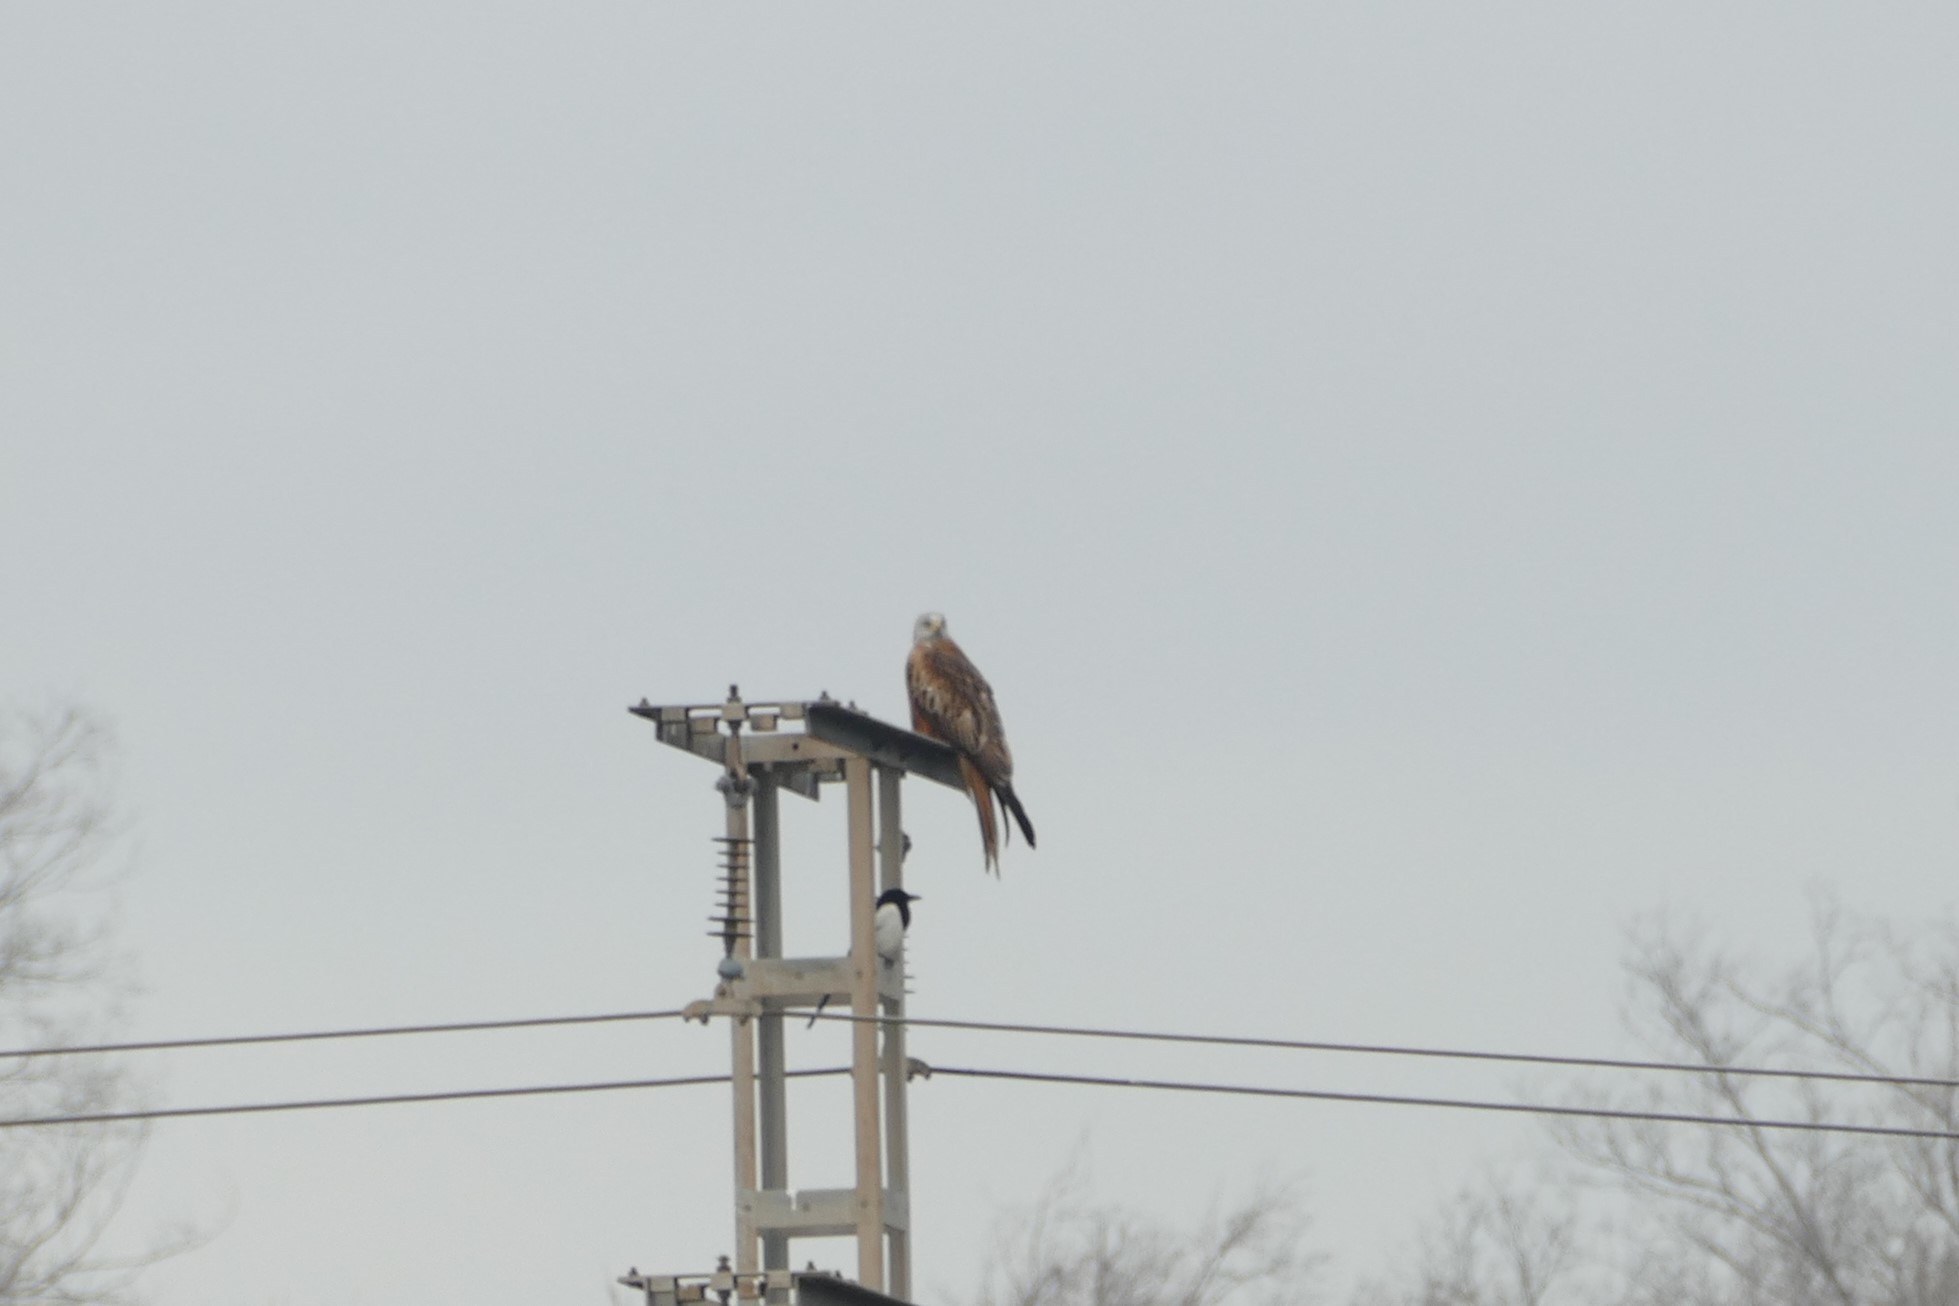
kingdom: Animalia
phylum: Chordata
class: Aves
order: Accipitriformes
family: Accipitridae
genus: Milvus
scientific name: Milvus milvus
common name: Red kite
